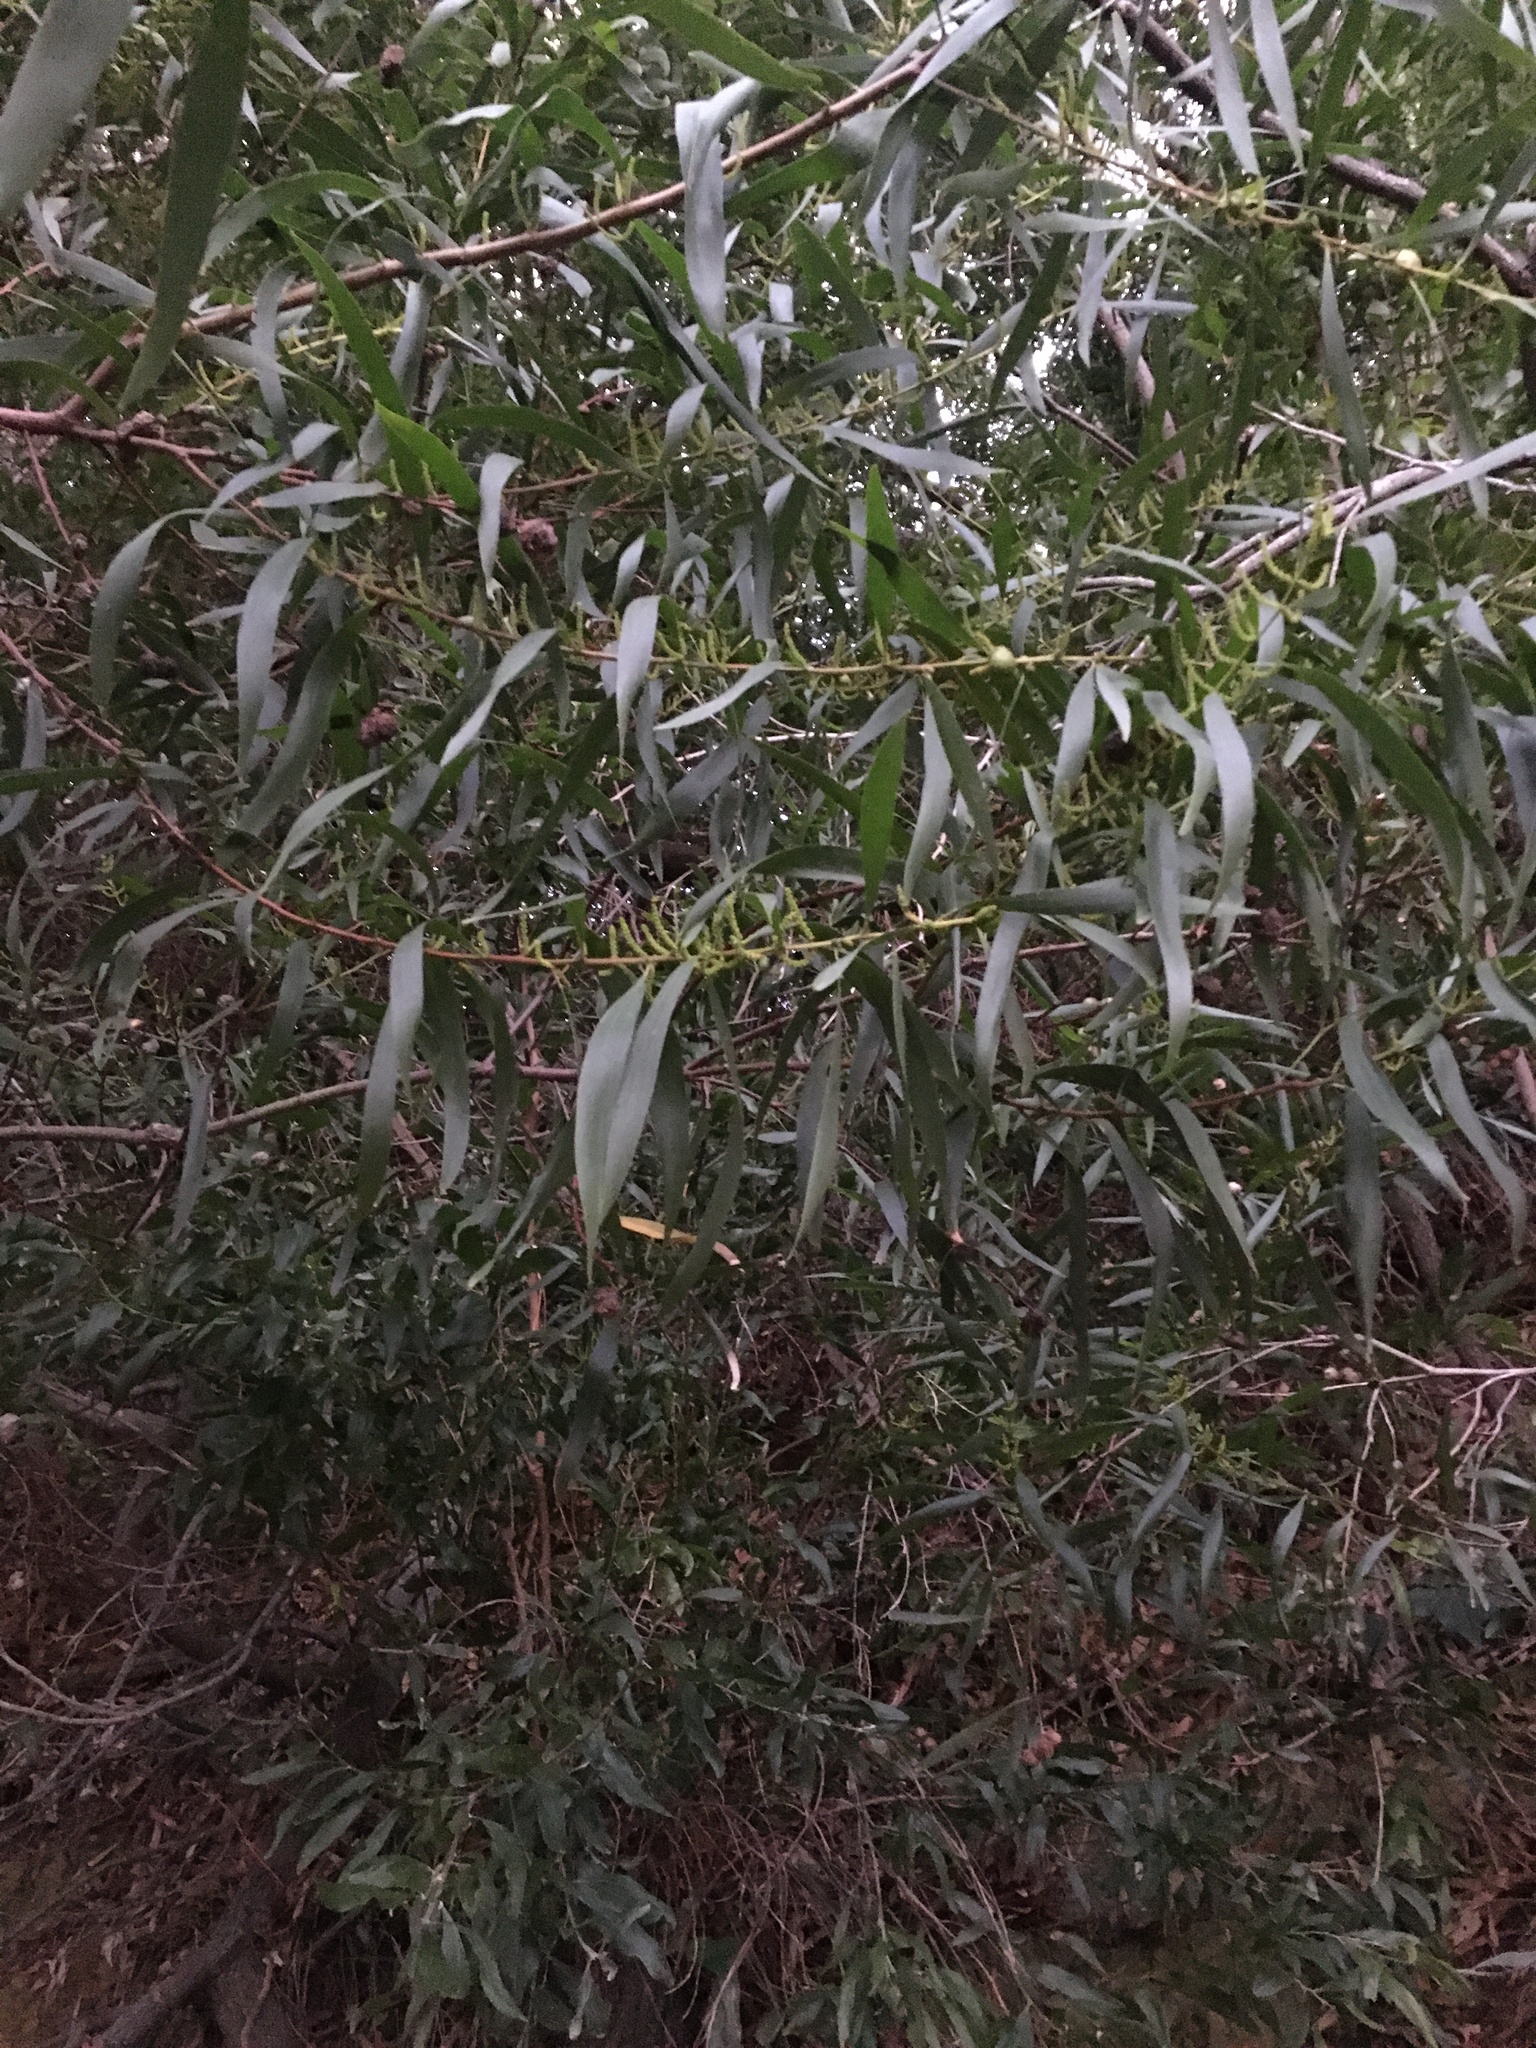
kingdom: Plantae
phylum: Tracheophyta
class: Magnoliopsida
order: Fabales
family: Fabaceae
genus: Acacia
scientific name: Acacia longifolia
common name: Sydney golden wattle
